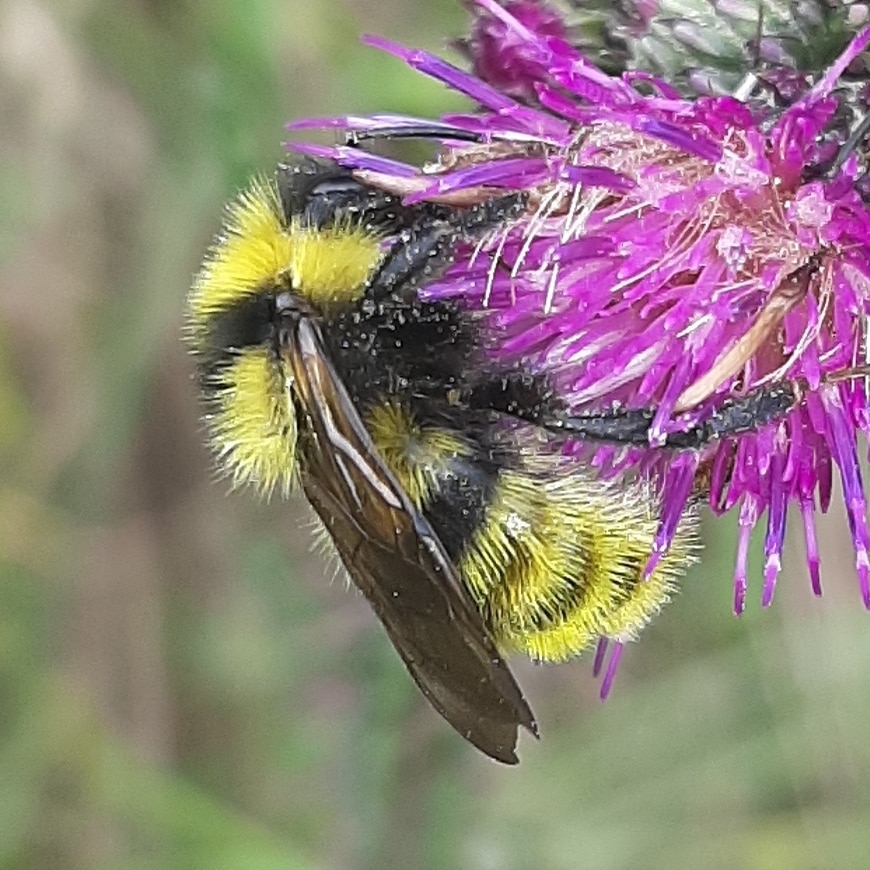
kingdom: Animalia
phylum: Arthropoda
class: Insecta
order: Hymenoptera
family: Apidae
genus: Bombus
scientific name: Bombus campestris
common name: Field cuckoo-bee
